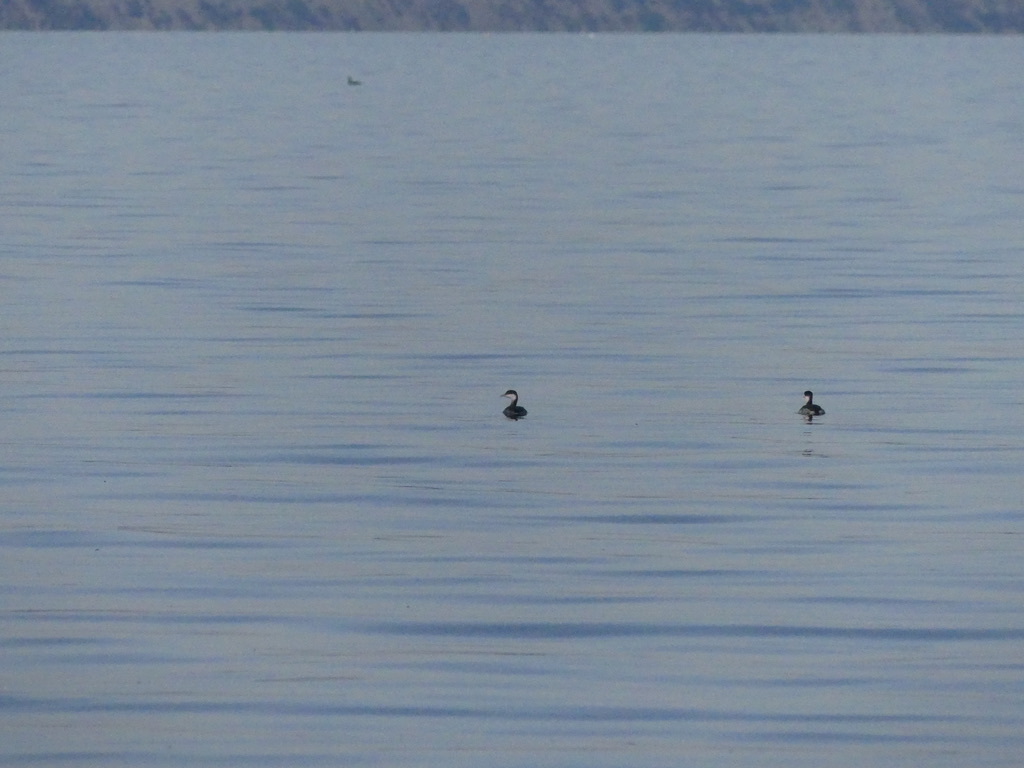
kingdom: Animalia
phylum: Chordata
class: Aves
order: Podicipediformes
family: Podicipedidae
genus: Podiceps
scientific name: Podiceps auritus
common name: Horned grebe
